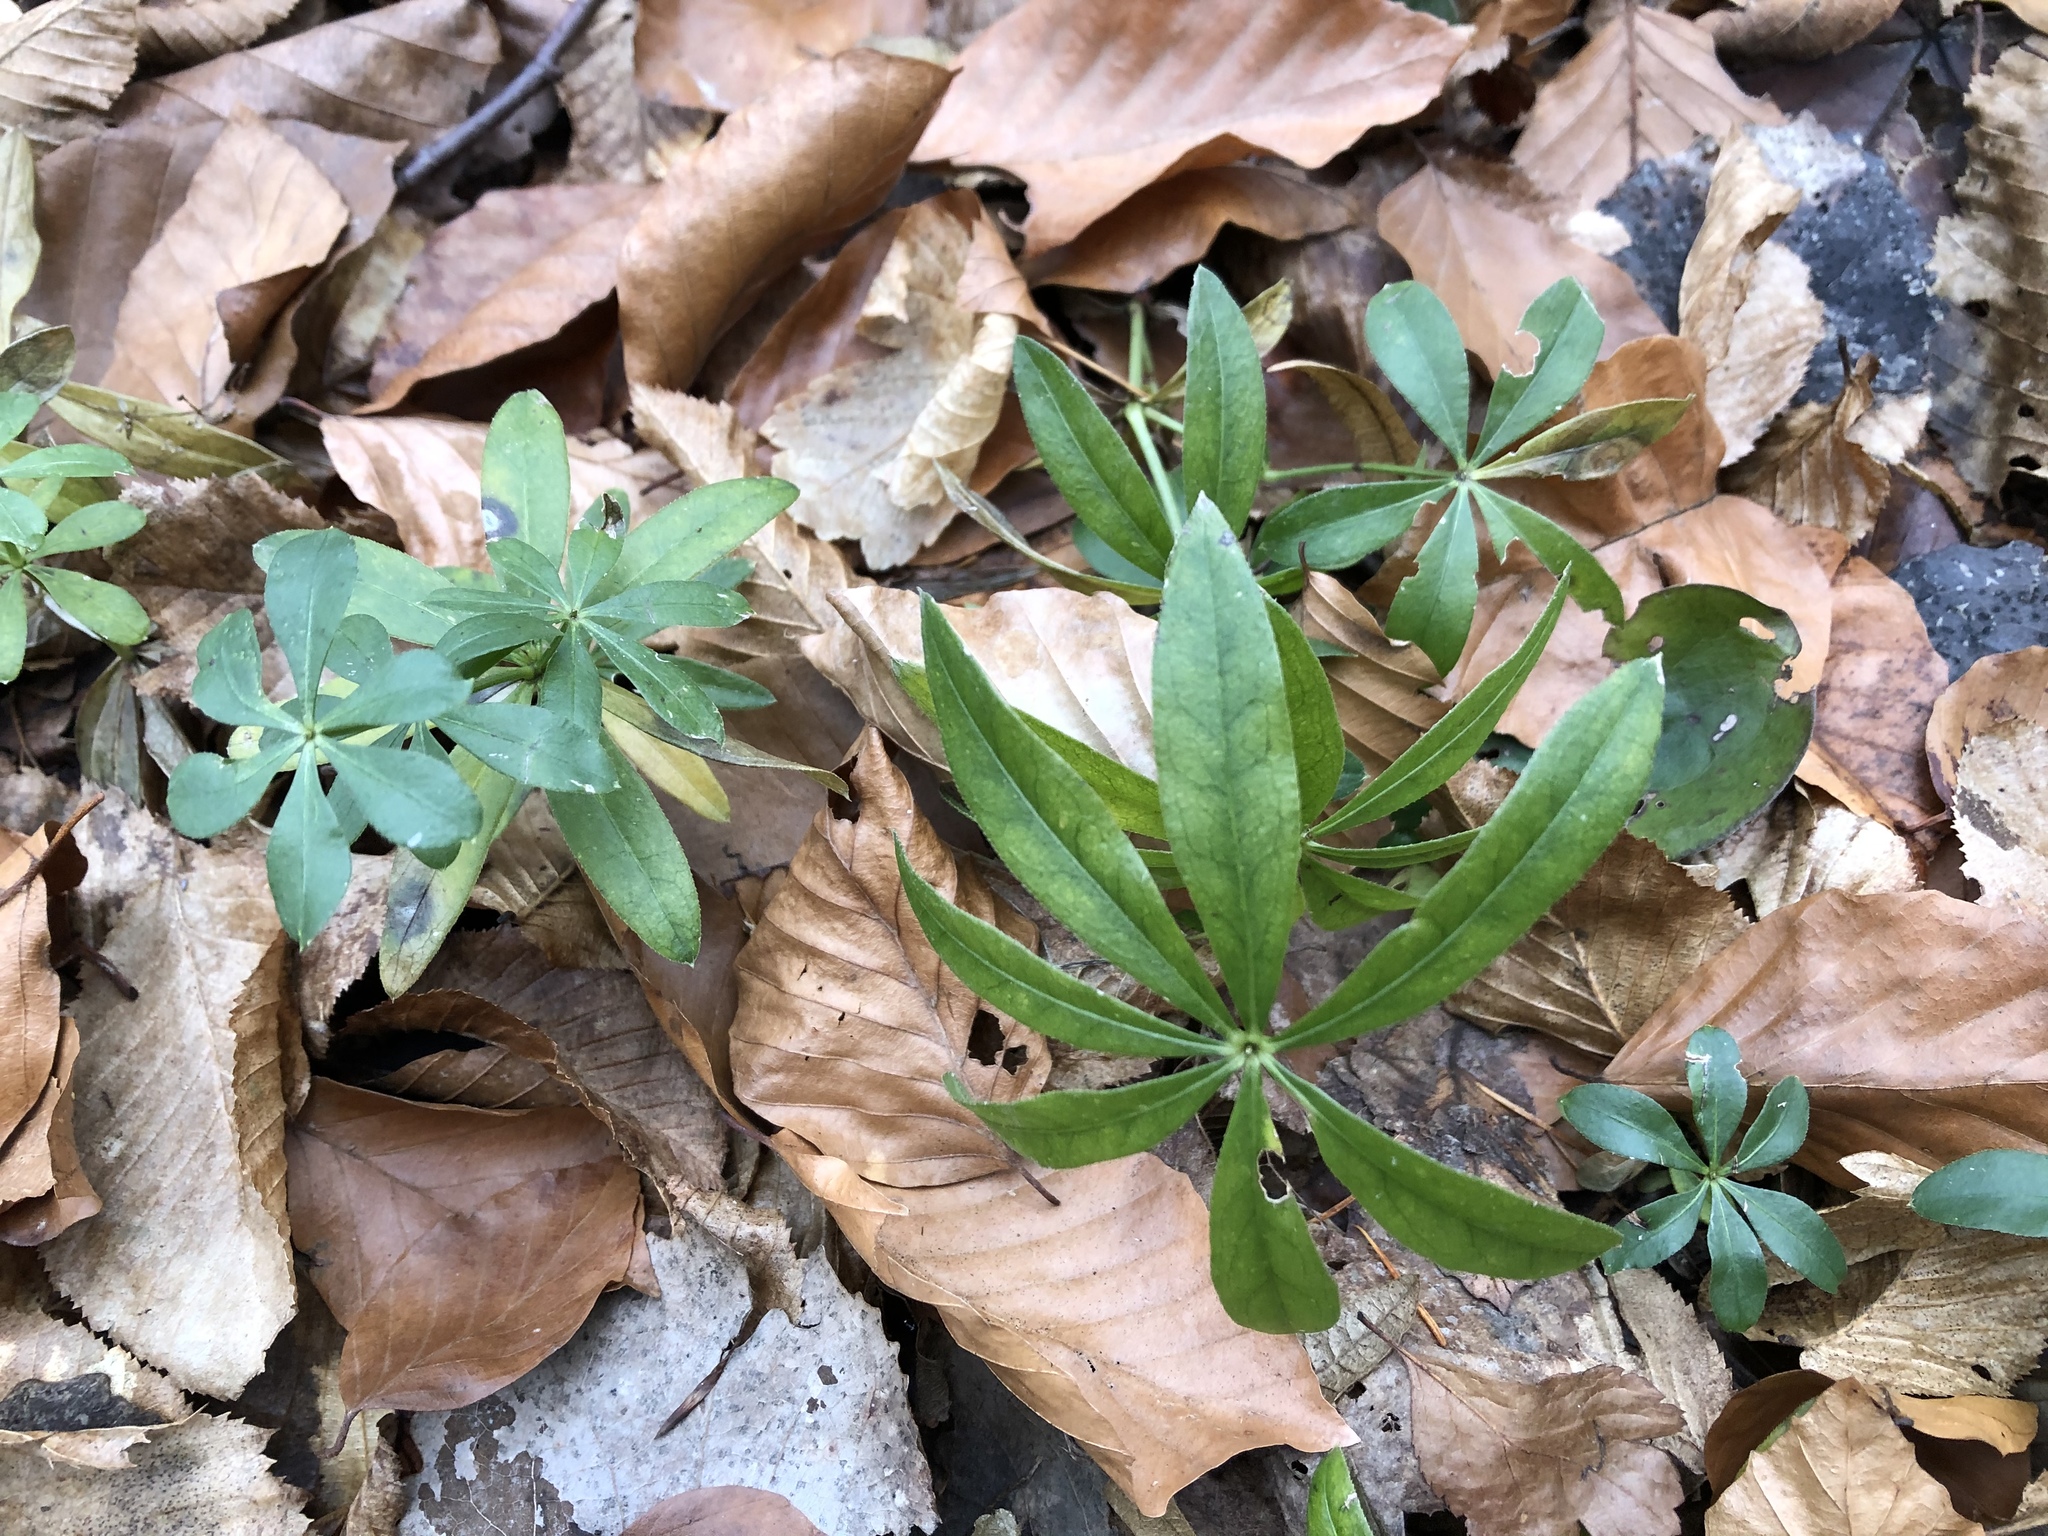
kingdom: Plantae
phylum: Tracheophyta
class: Magnoliopsida
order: Gentianales
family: Rubiaceae
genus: Galium
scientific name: Galium odoratum
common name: Sweet woodruff
